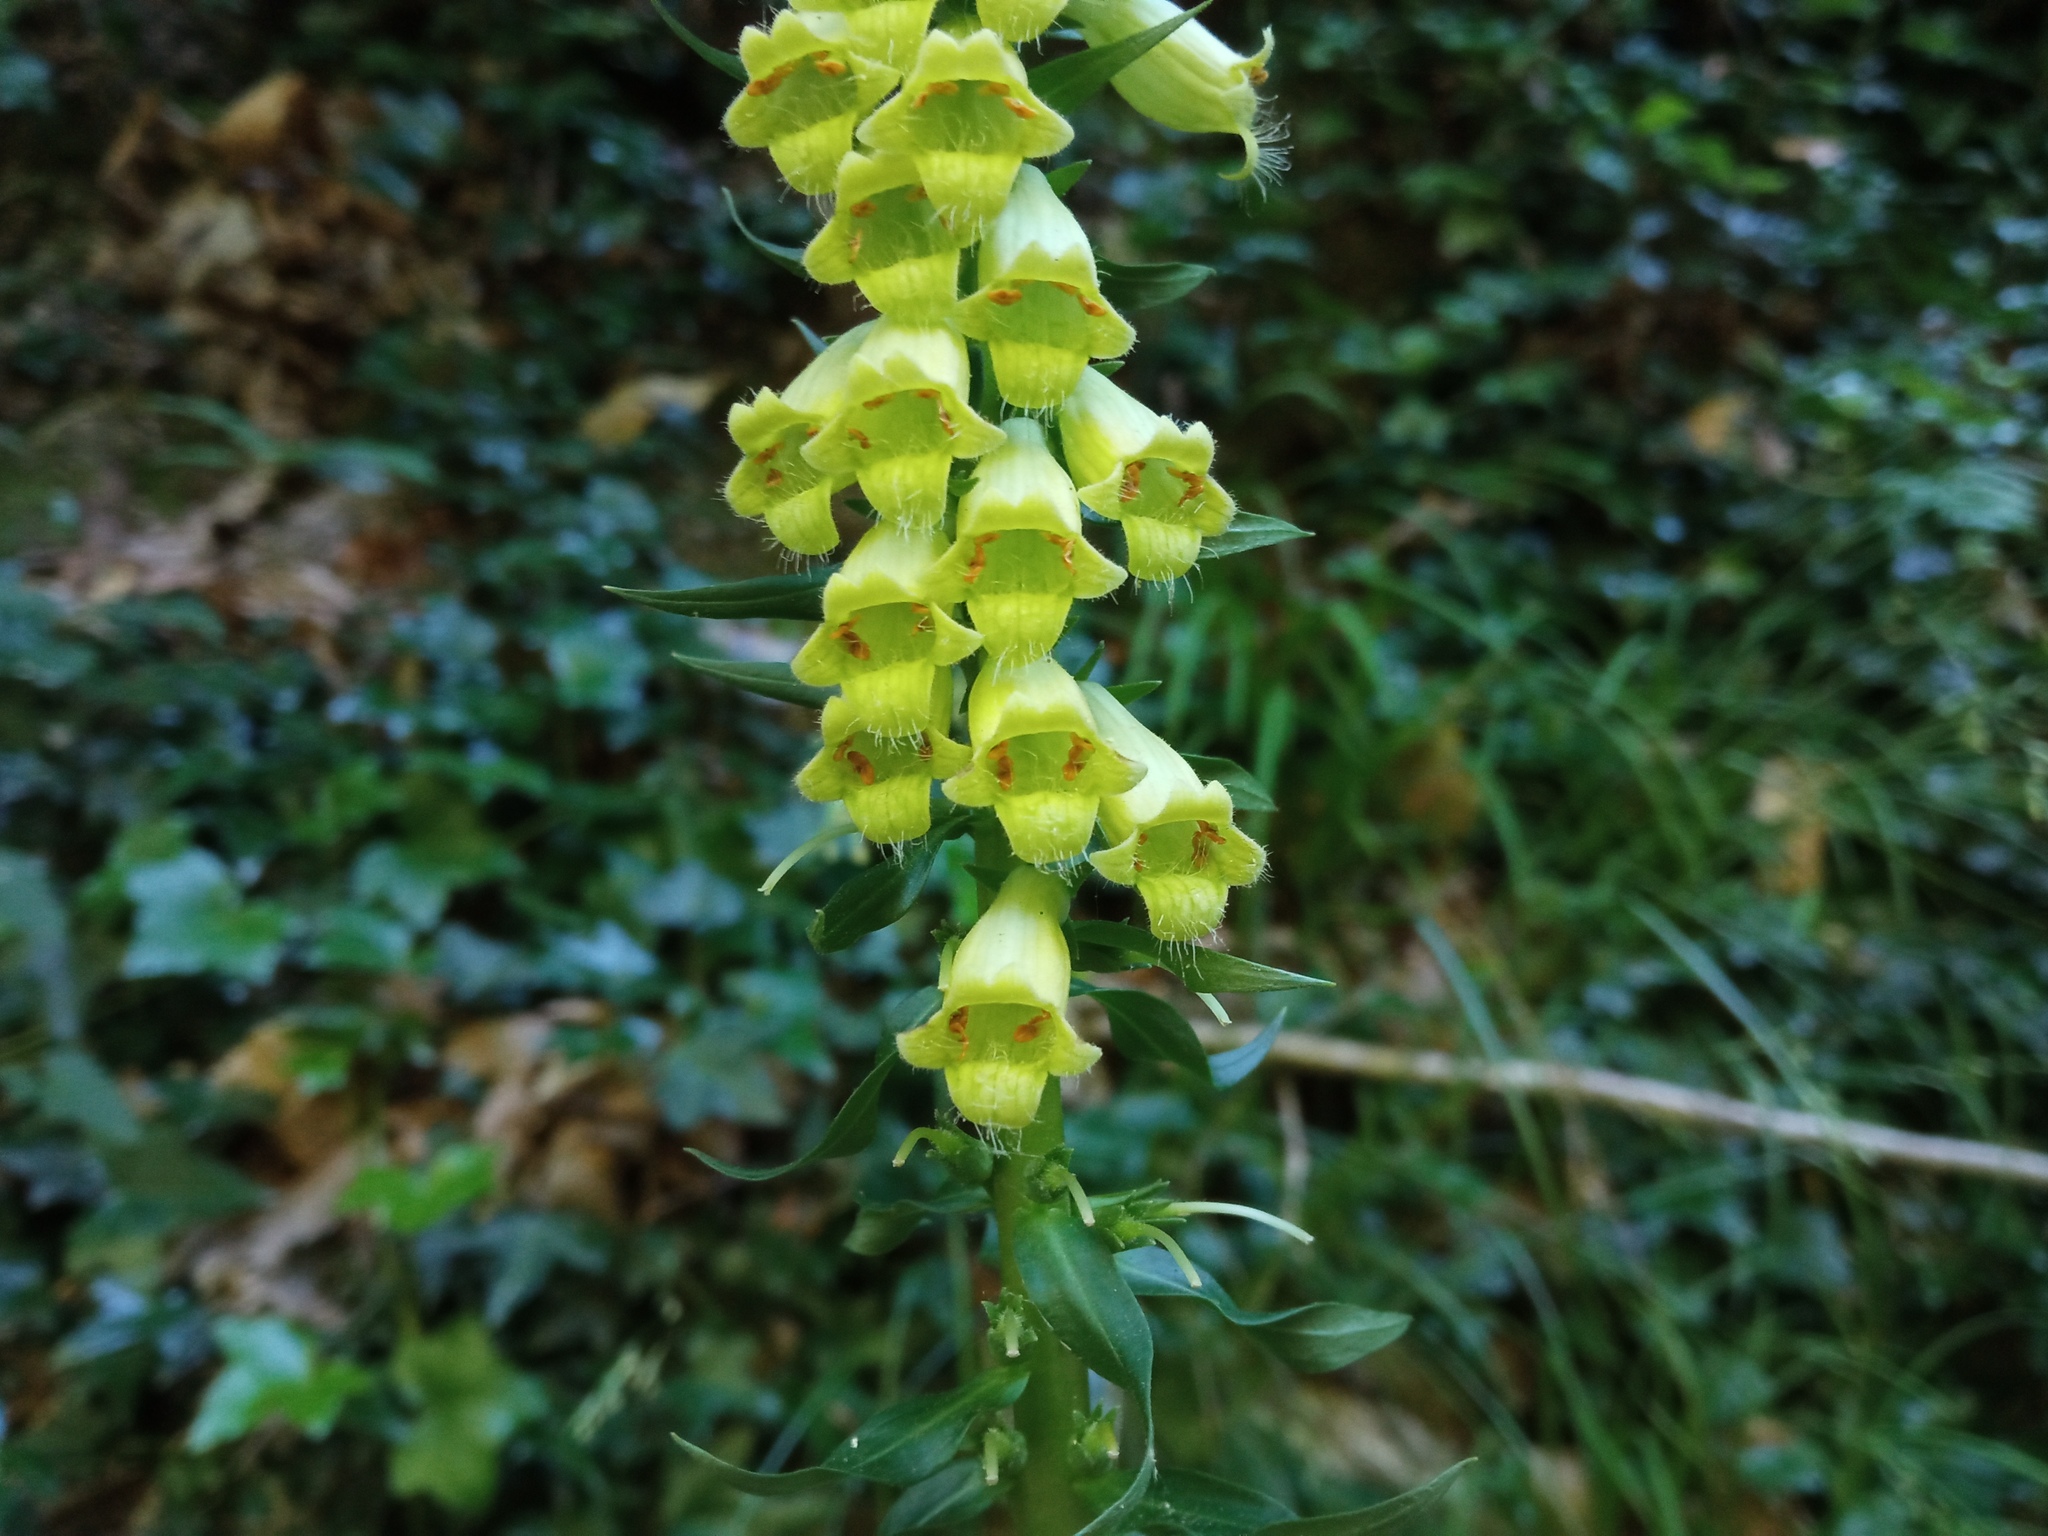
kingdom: Plantae
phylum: Tracheophyta
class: Magnoliopsida
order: Lamiales
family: Plantaginaceae
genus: Digitalis
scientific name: Digitalis lutea
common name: Straw foxglove
